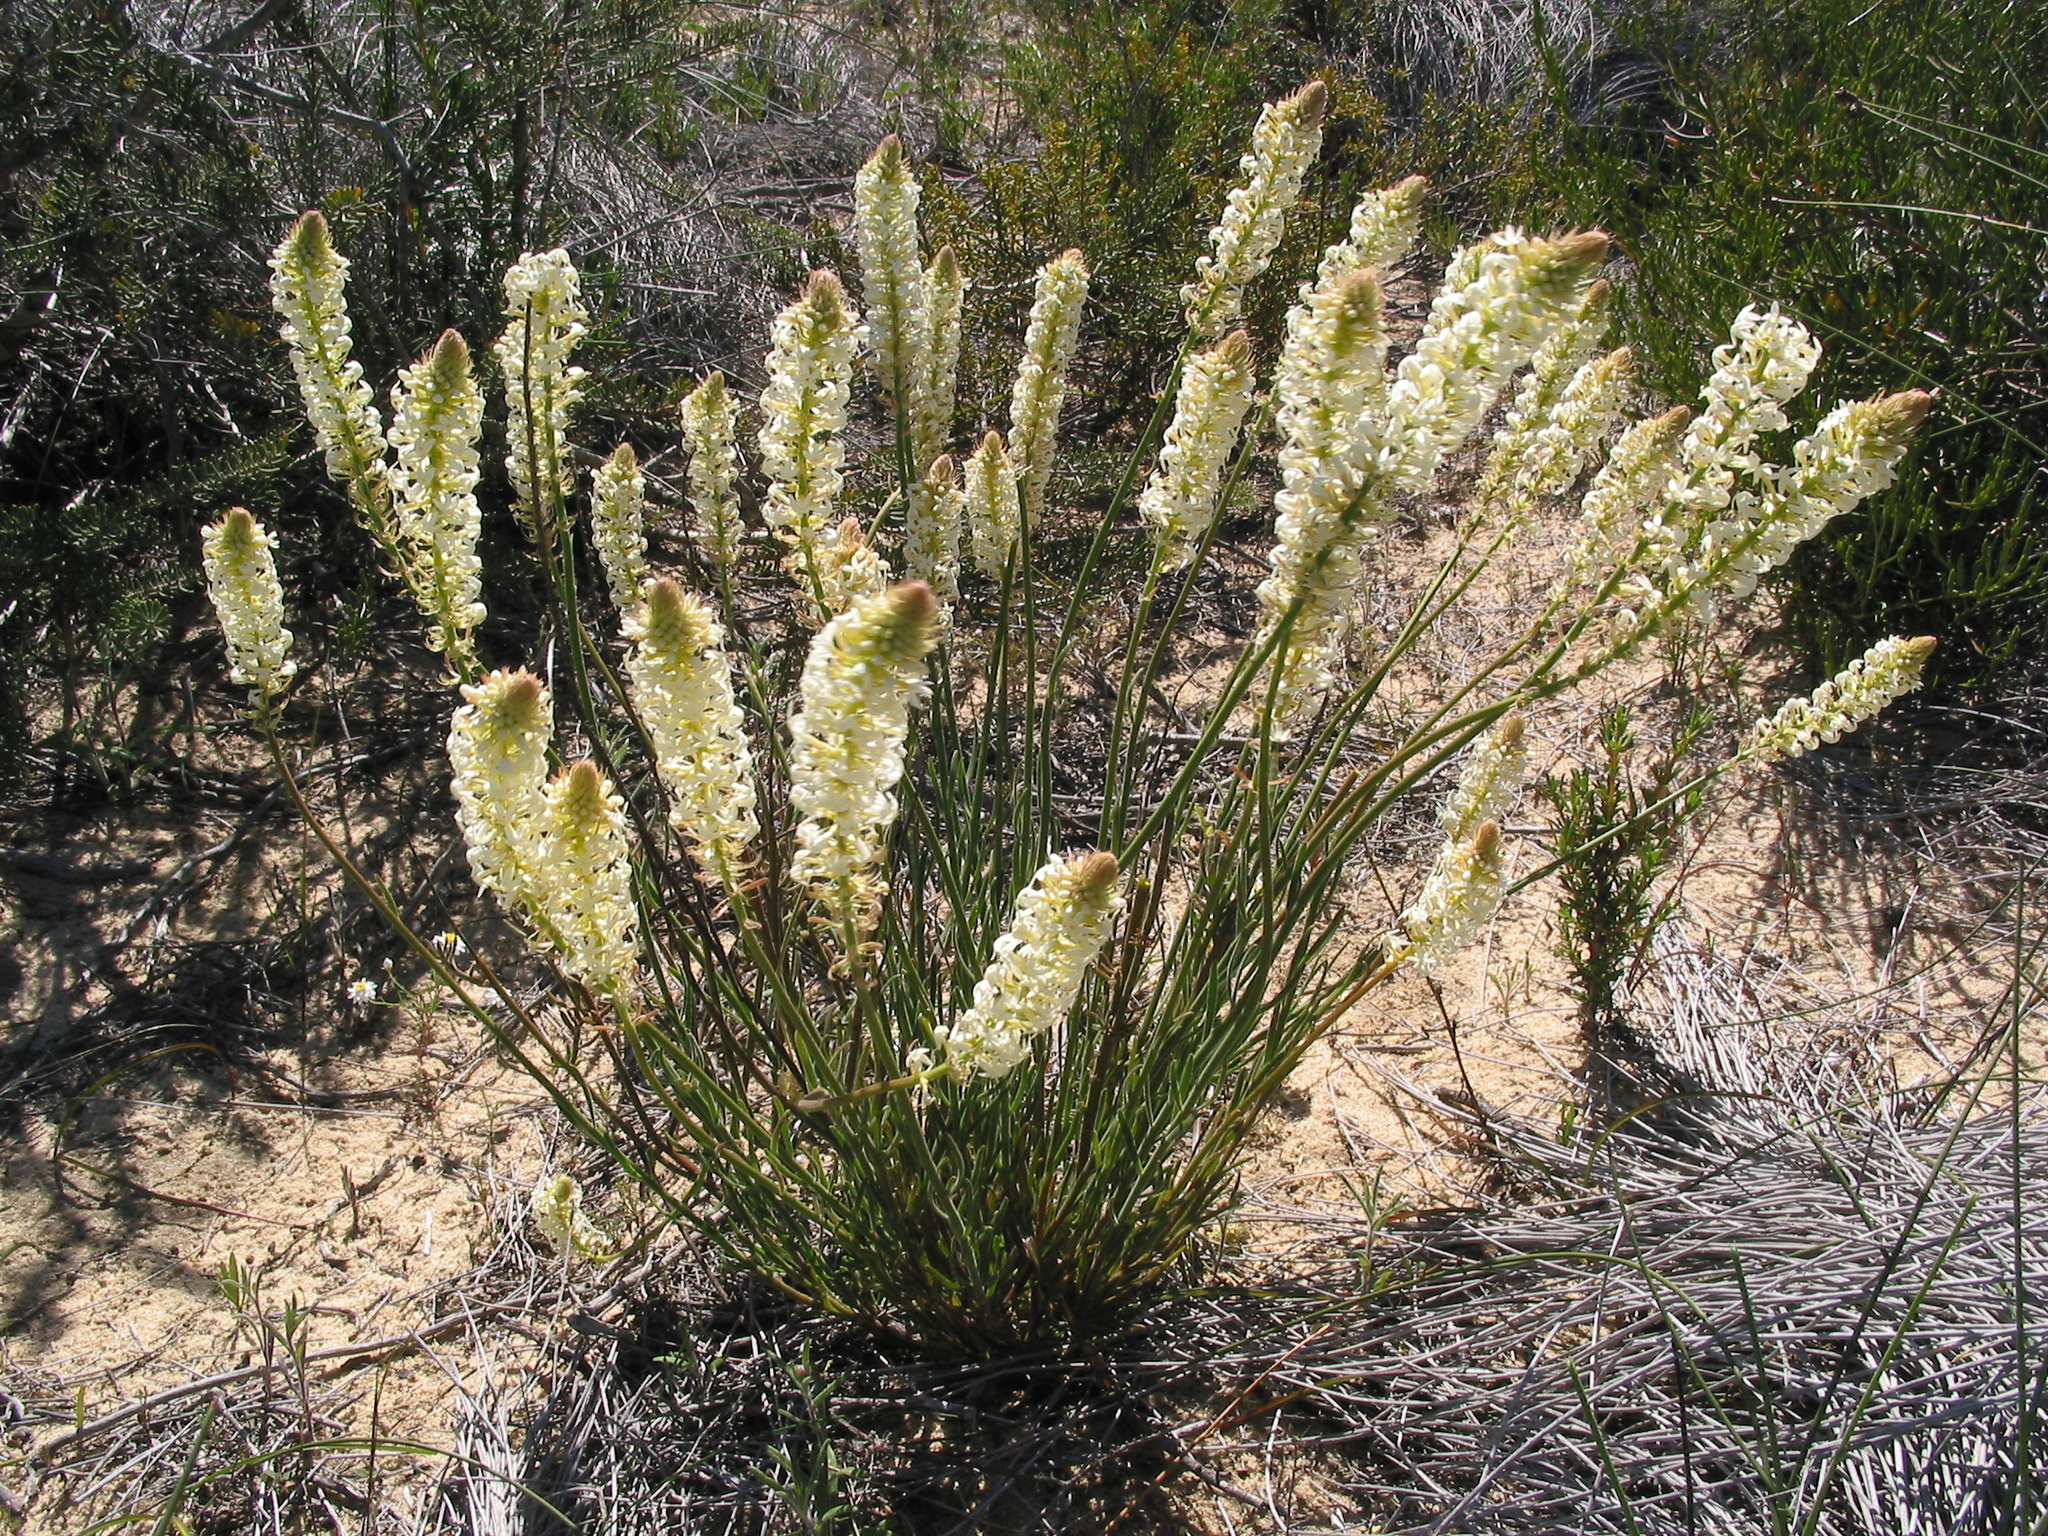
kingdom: Plantae
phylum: Tracheophyta
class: Magnoliopsida
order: Celastrales
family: Celastraceae
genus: Stackhousia
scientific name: Stackhousia monogyna
